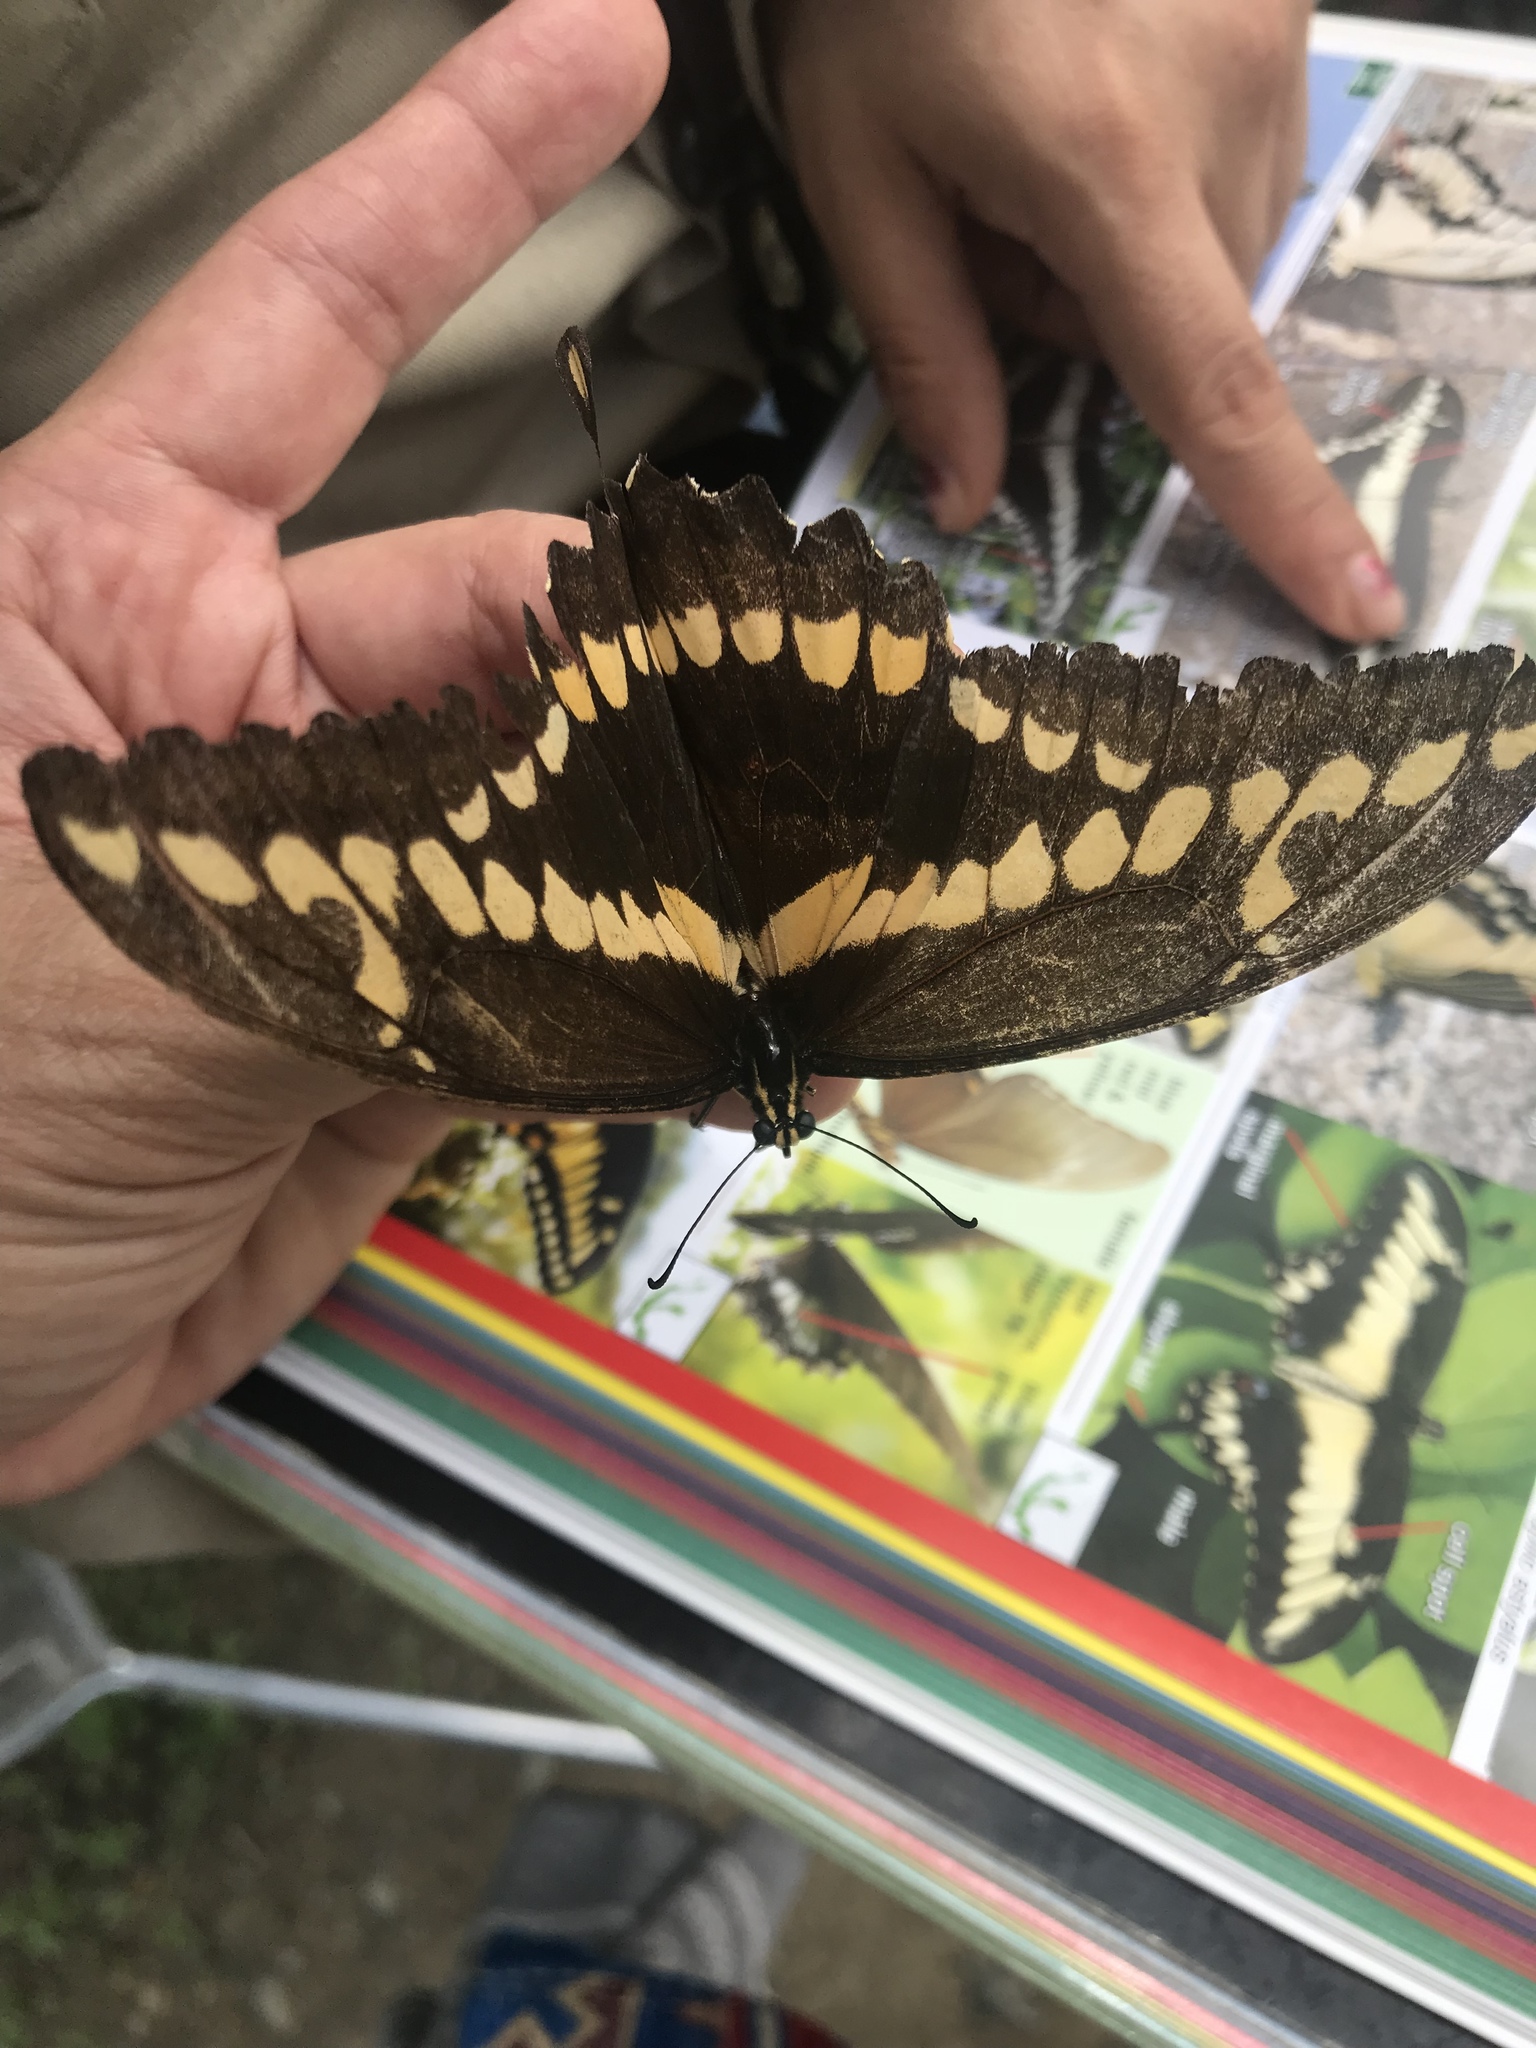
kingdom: Animalia
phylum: Arthropoda
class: Insecta
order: Lepidoptera
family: Papilionidae
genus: Papilio
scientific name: Papilio rumiko
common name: Western giant swallowtail
